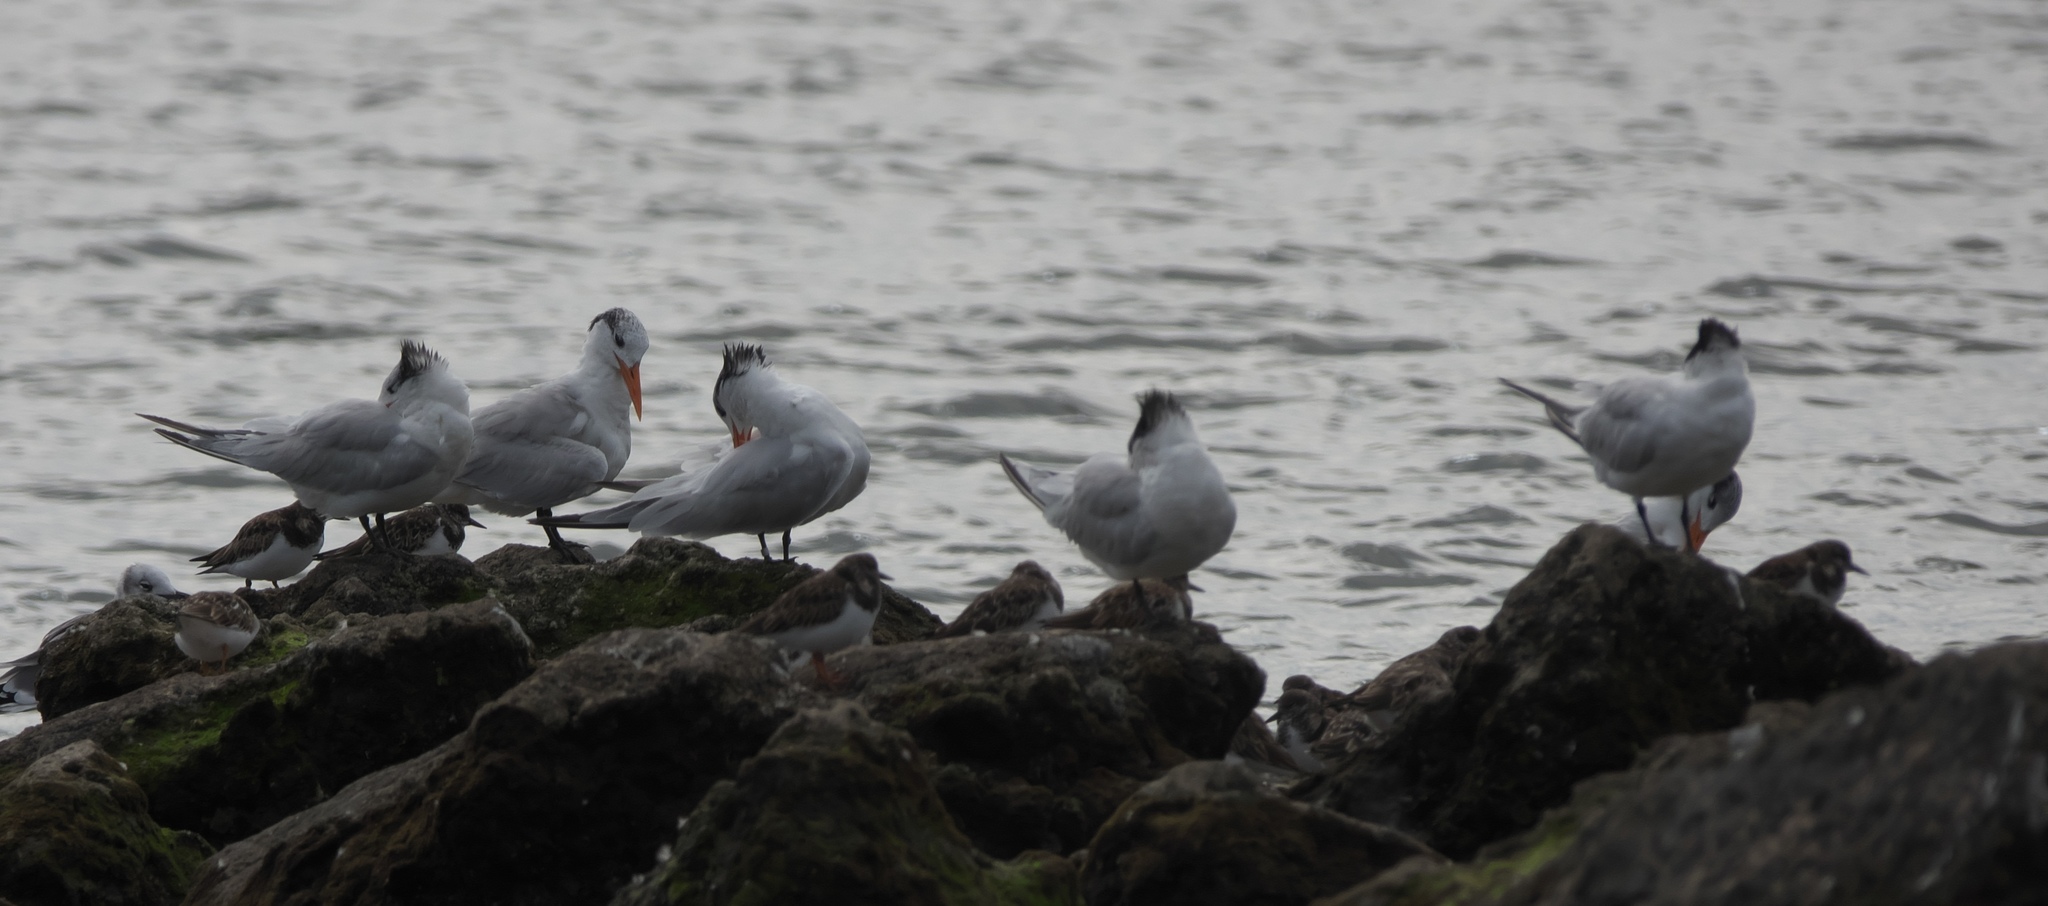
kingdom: Animalia
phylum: Chordata
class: Aves
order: Charadriiformes
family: Laridae
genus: Thalasseus
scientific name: Thalasseus maximus
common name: Royal tern
